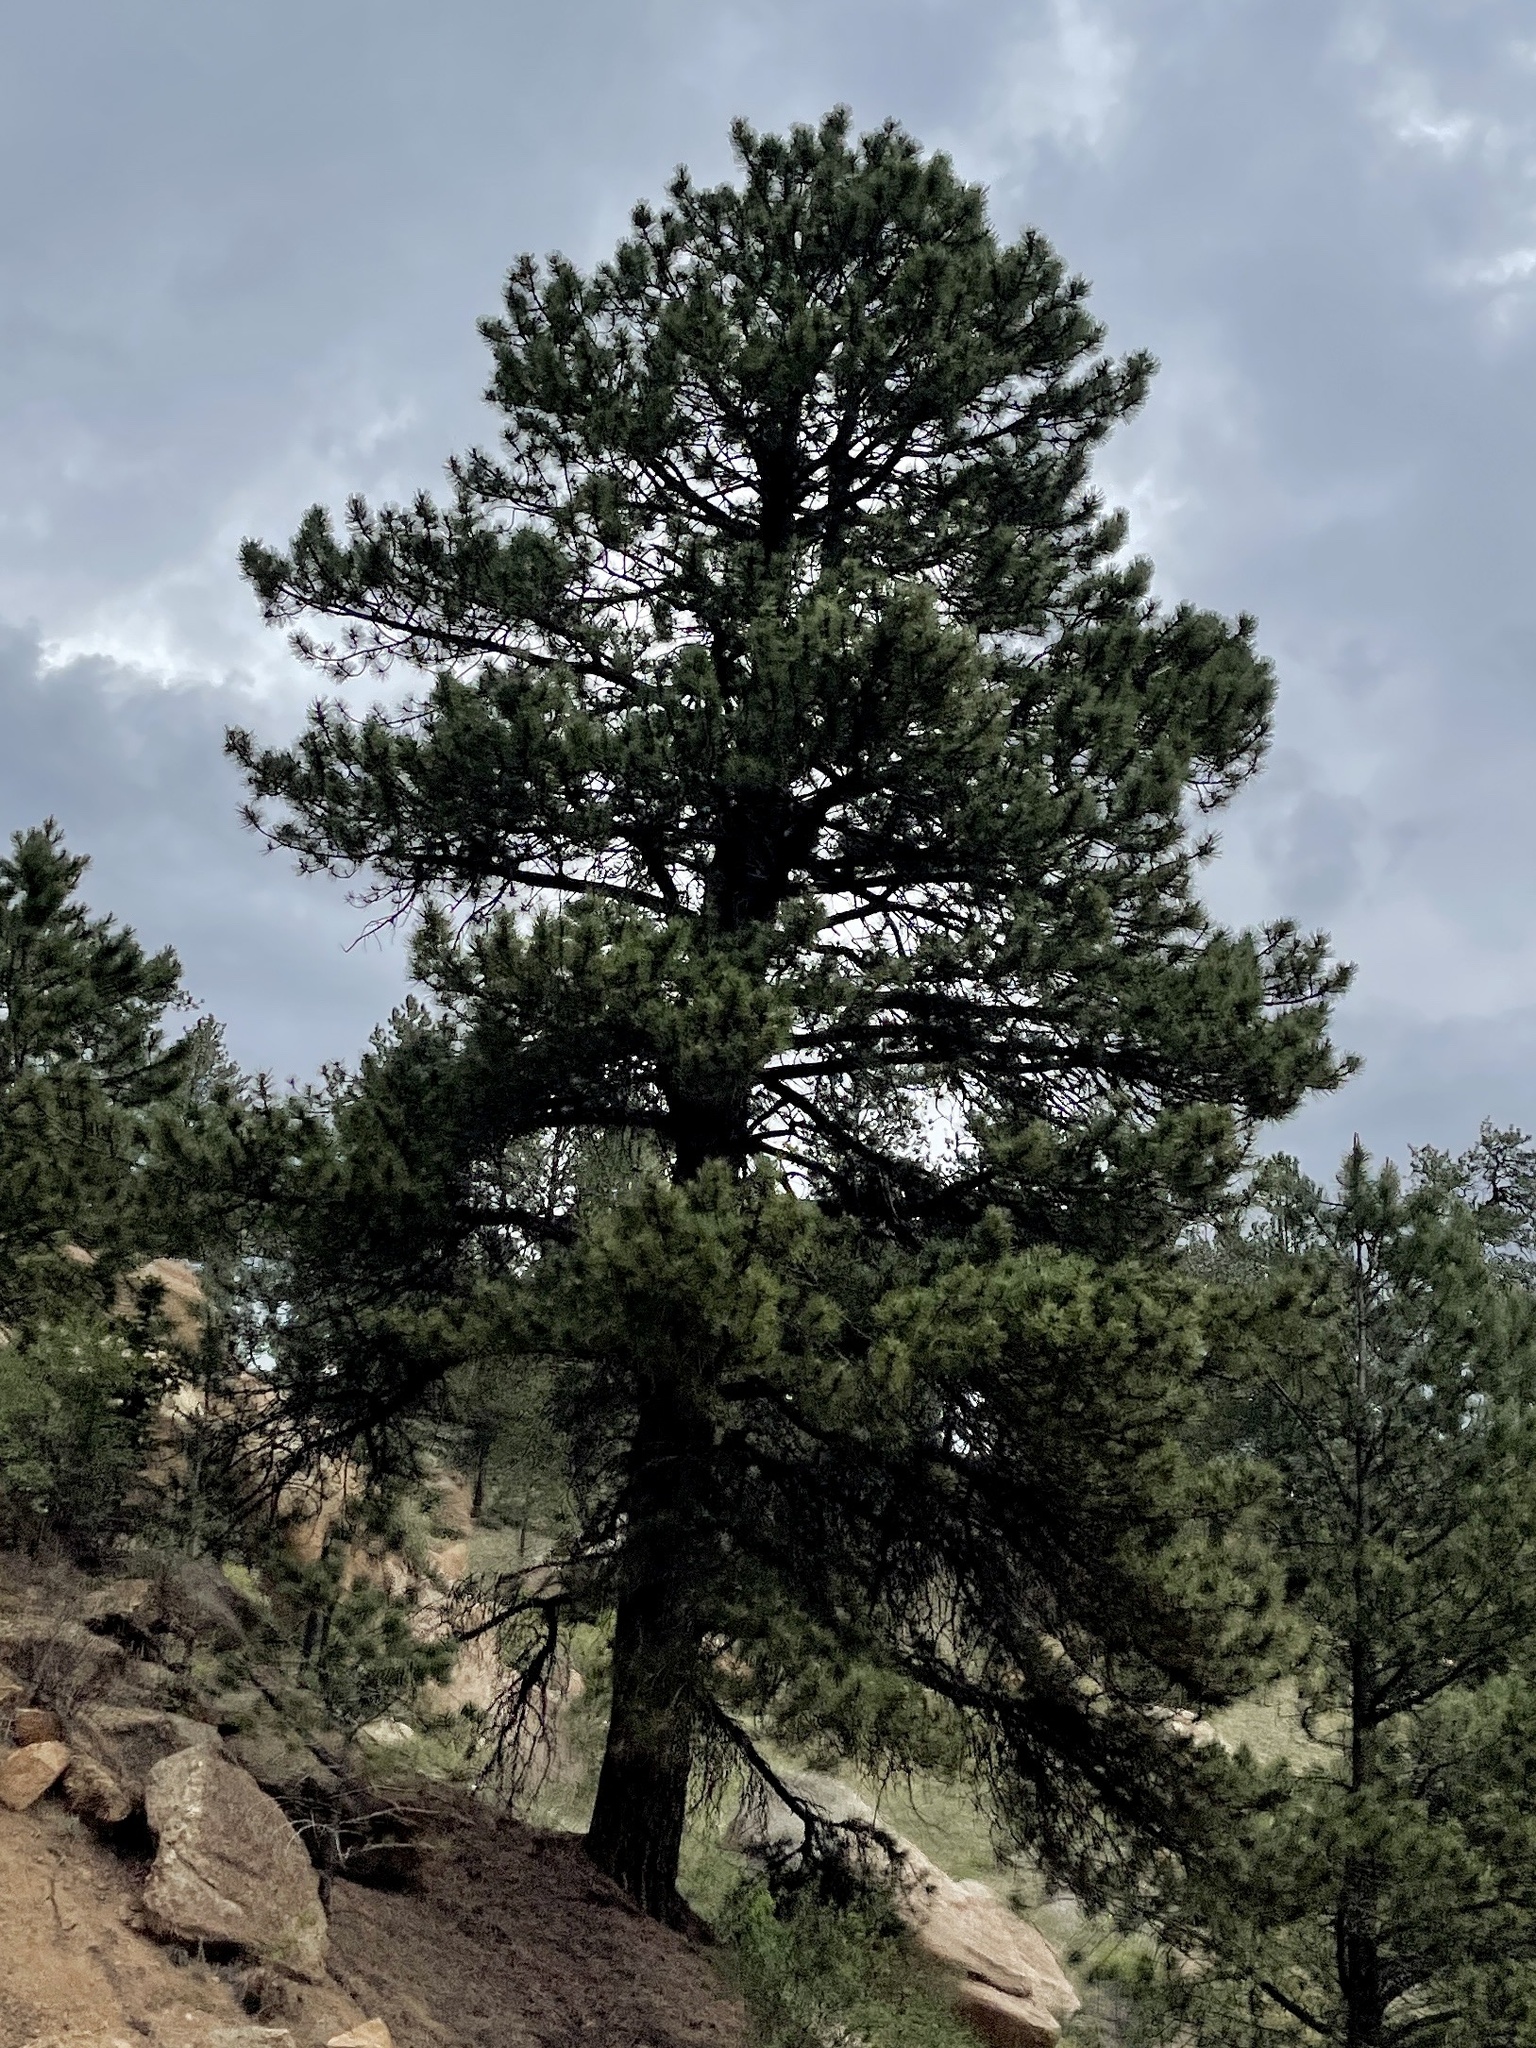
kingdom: Plantae
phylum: Tracheophyta
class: Pinopsida
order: Pinales
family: Pinaceae
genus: Pinus
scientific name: Pinus ponderosa
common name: Western yellow-pine
